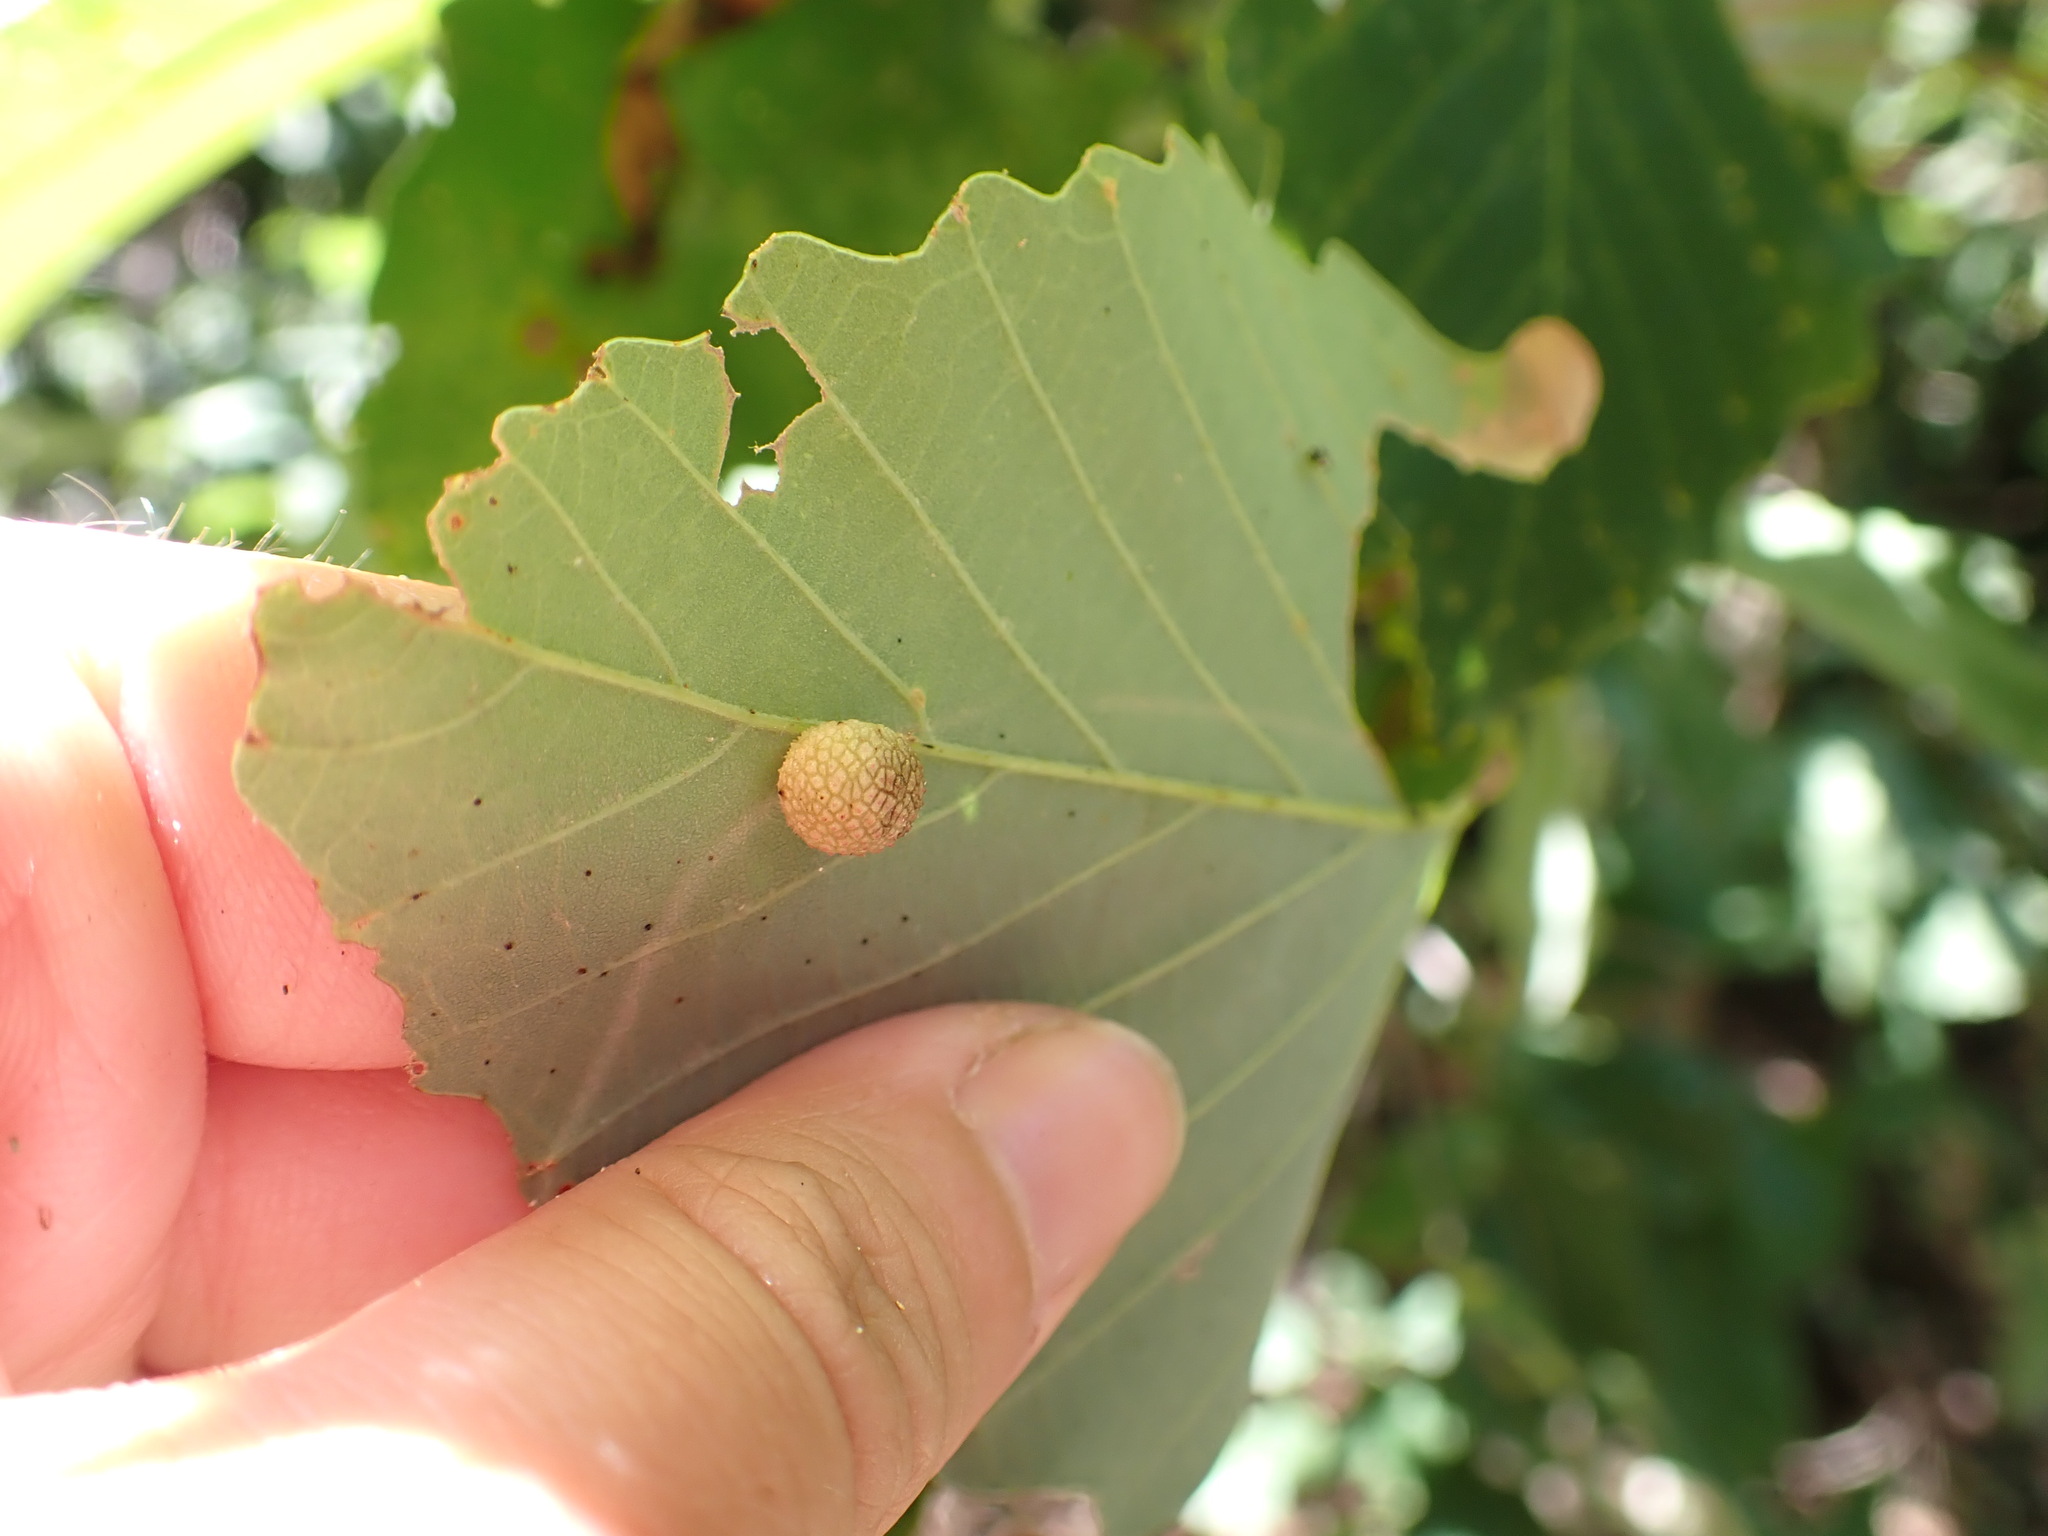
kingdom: Animalia
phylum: Arthropoda
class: Insecta
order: Hymenoptera
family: Cynipidae
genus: Acraspis
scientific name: Acraspis quercushirta
